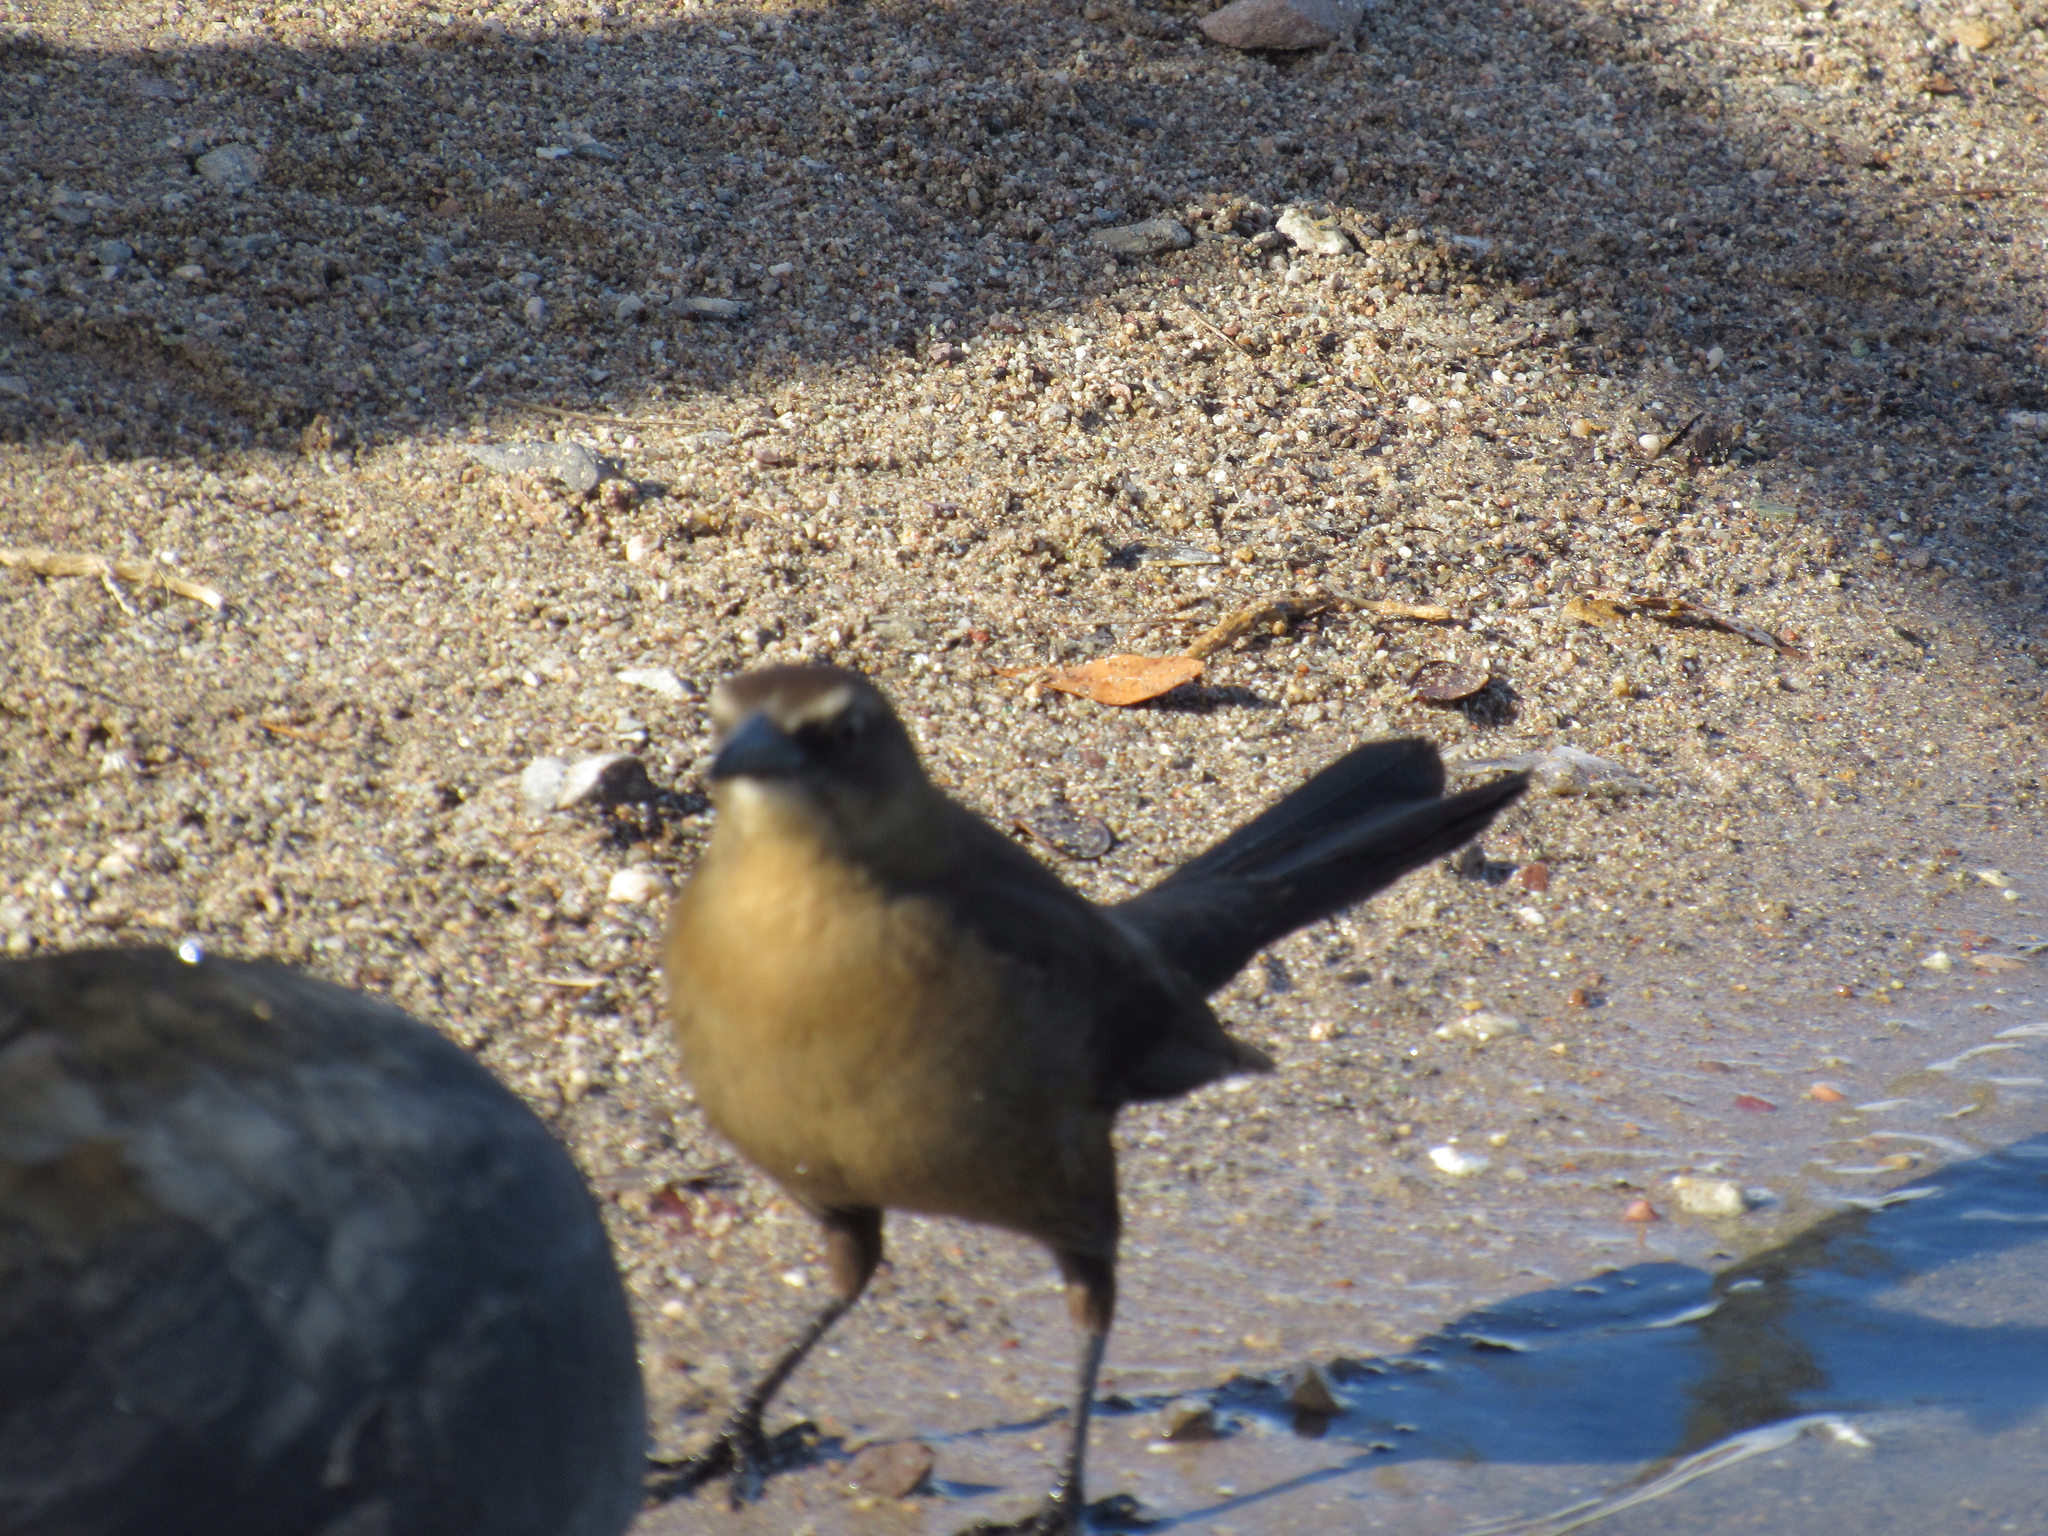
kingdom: Animalia
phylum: Chordata
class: Aves
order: Passeriformes
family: Icteridae
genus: Quiscalus
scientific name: Quiscalus mexicanus
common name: Great-tailed grackle
